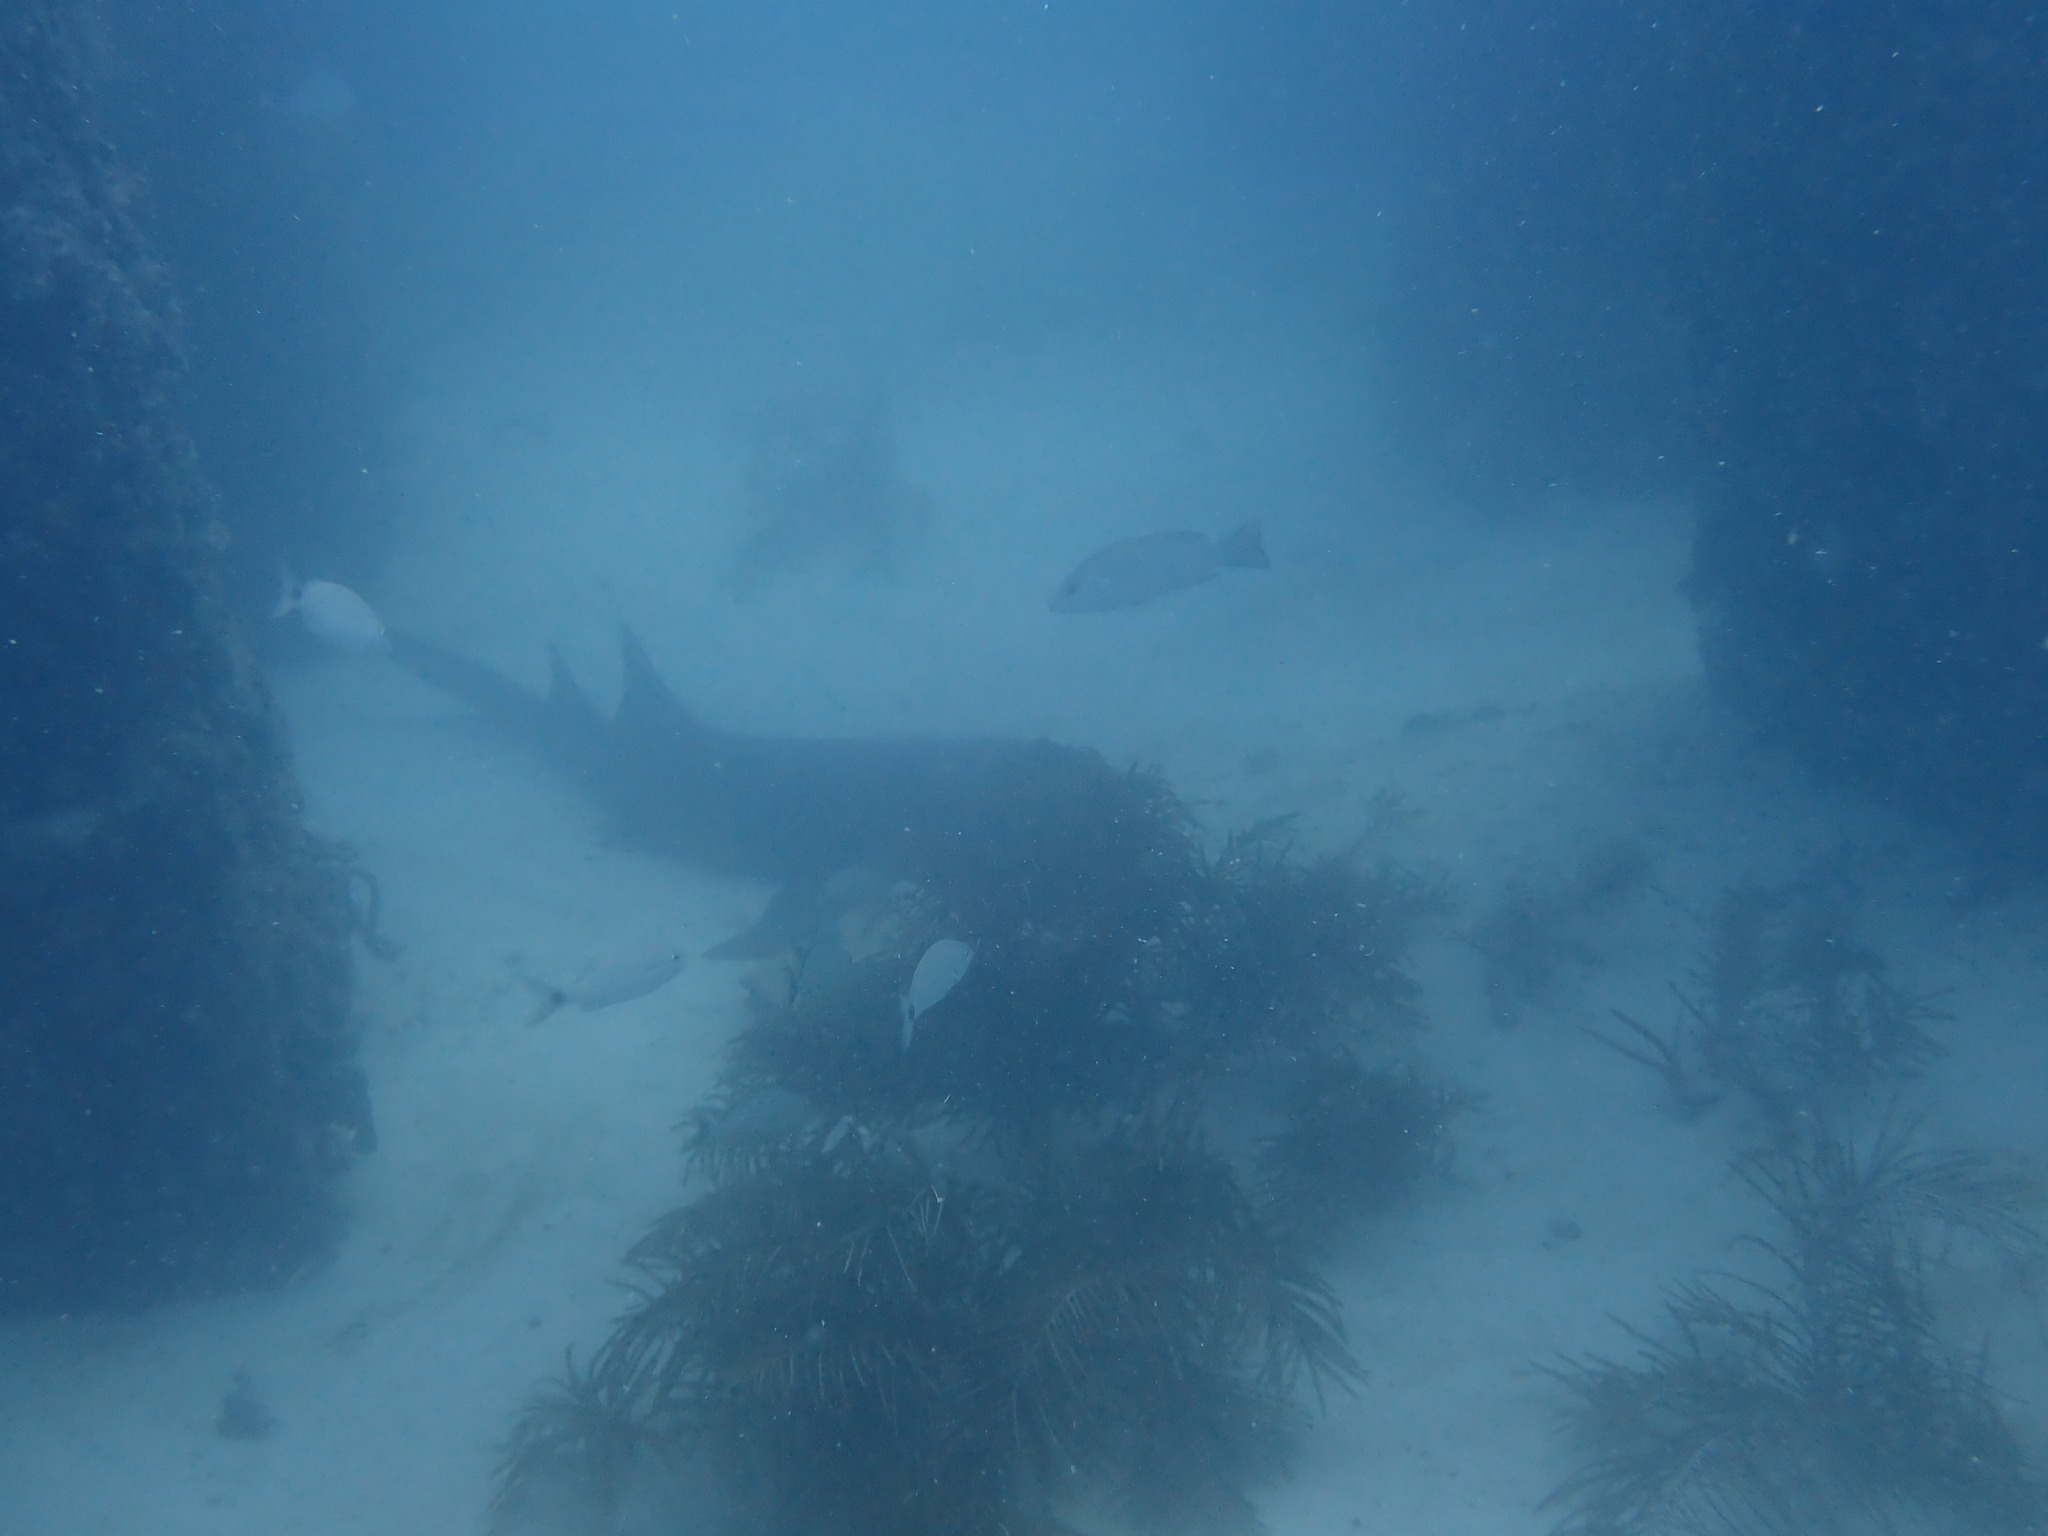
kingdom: Animalia
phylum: Chordata
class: Elasmobranchii
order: Orectolobiformes
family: Ginglymostomatidae
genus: Ginglymostoma
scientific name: Ginglymostoma cirratum
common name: Nurse shark
